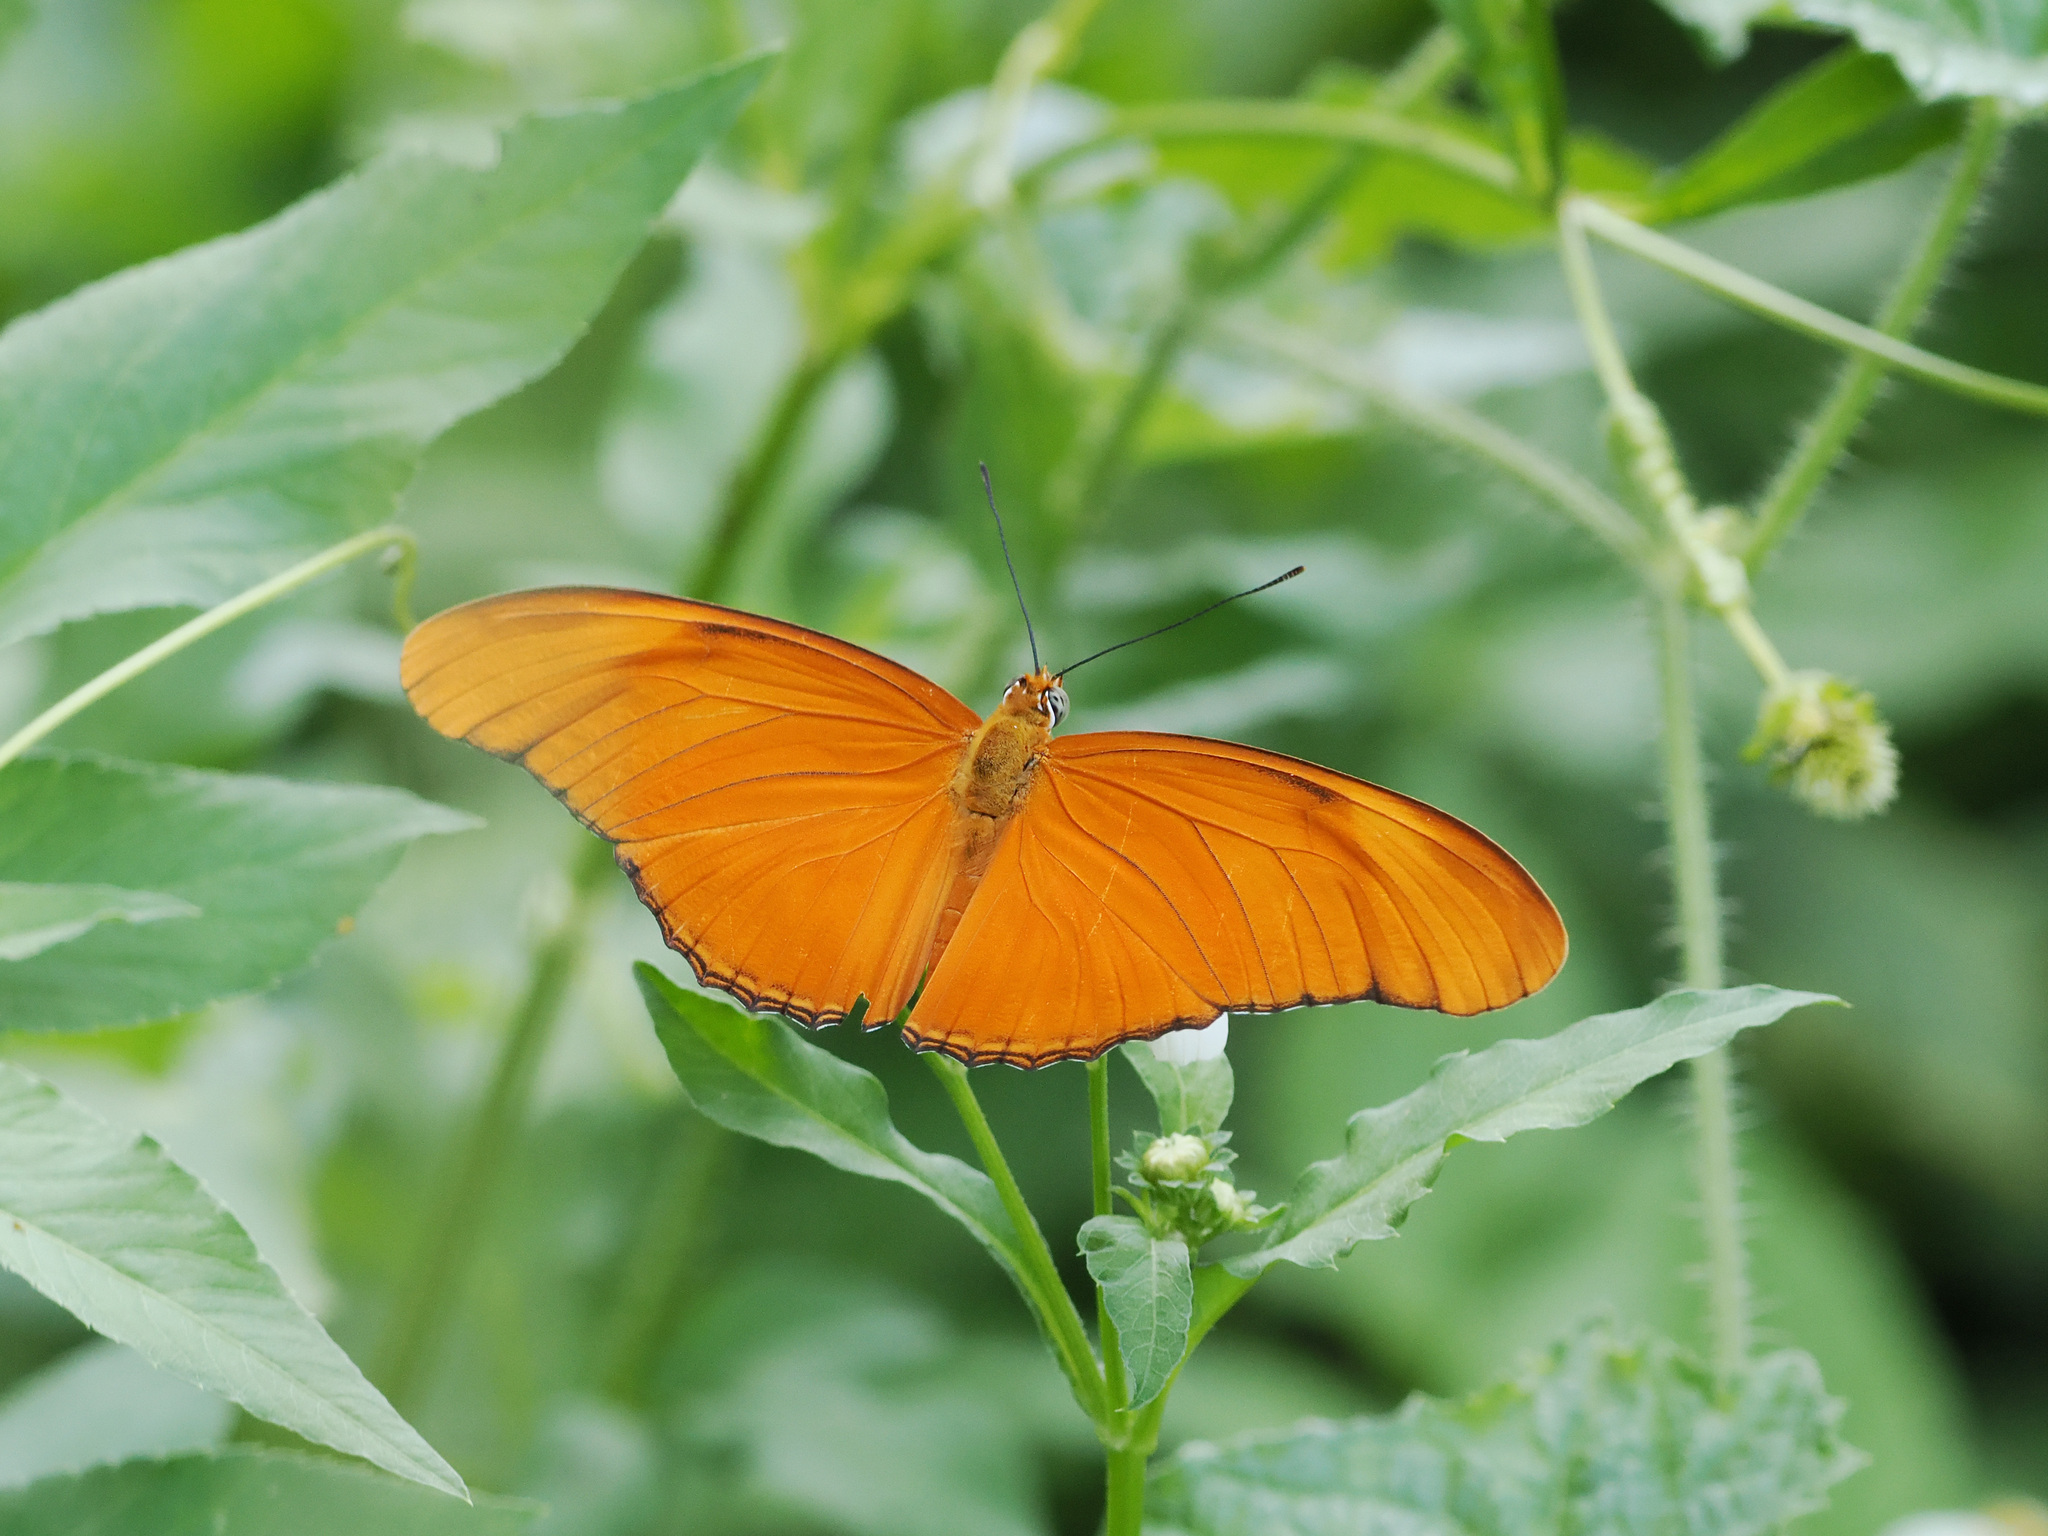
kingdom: Animalia
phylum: Arthropoda
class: Insecta
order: Lepidoptera
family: Nymphalidae
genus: Dryas
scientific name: Dryas iulia
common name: Flambeau
